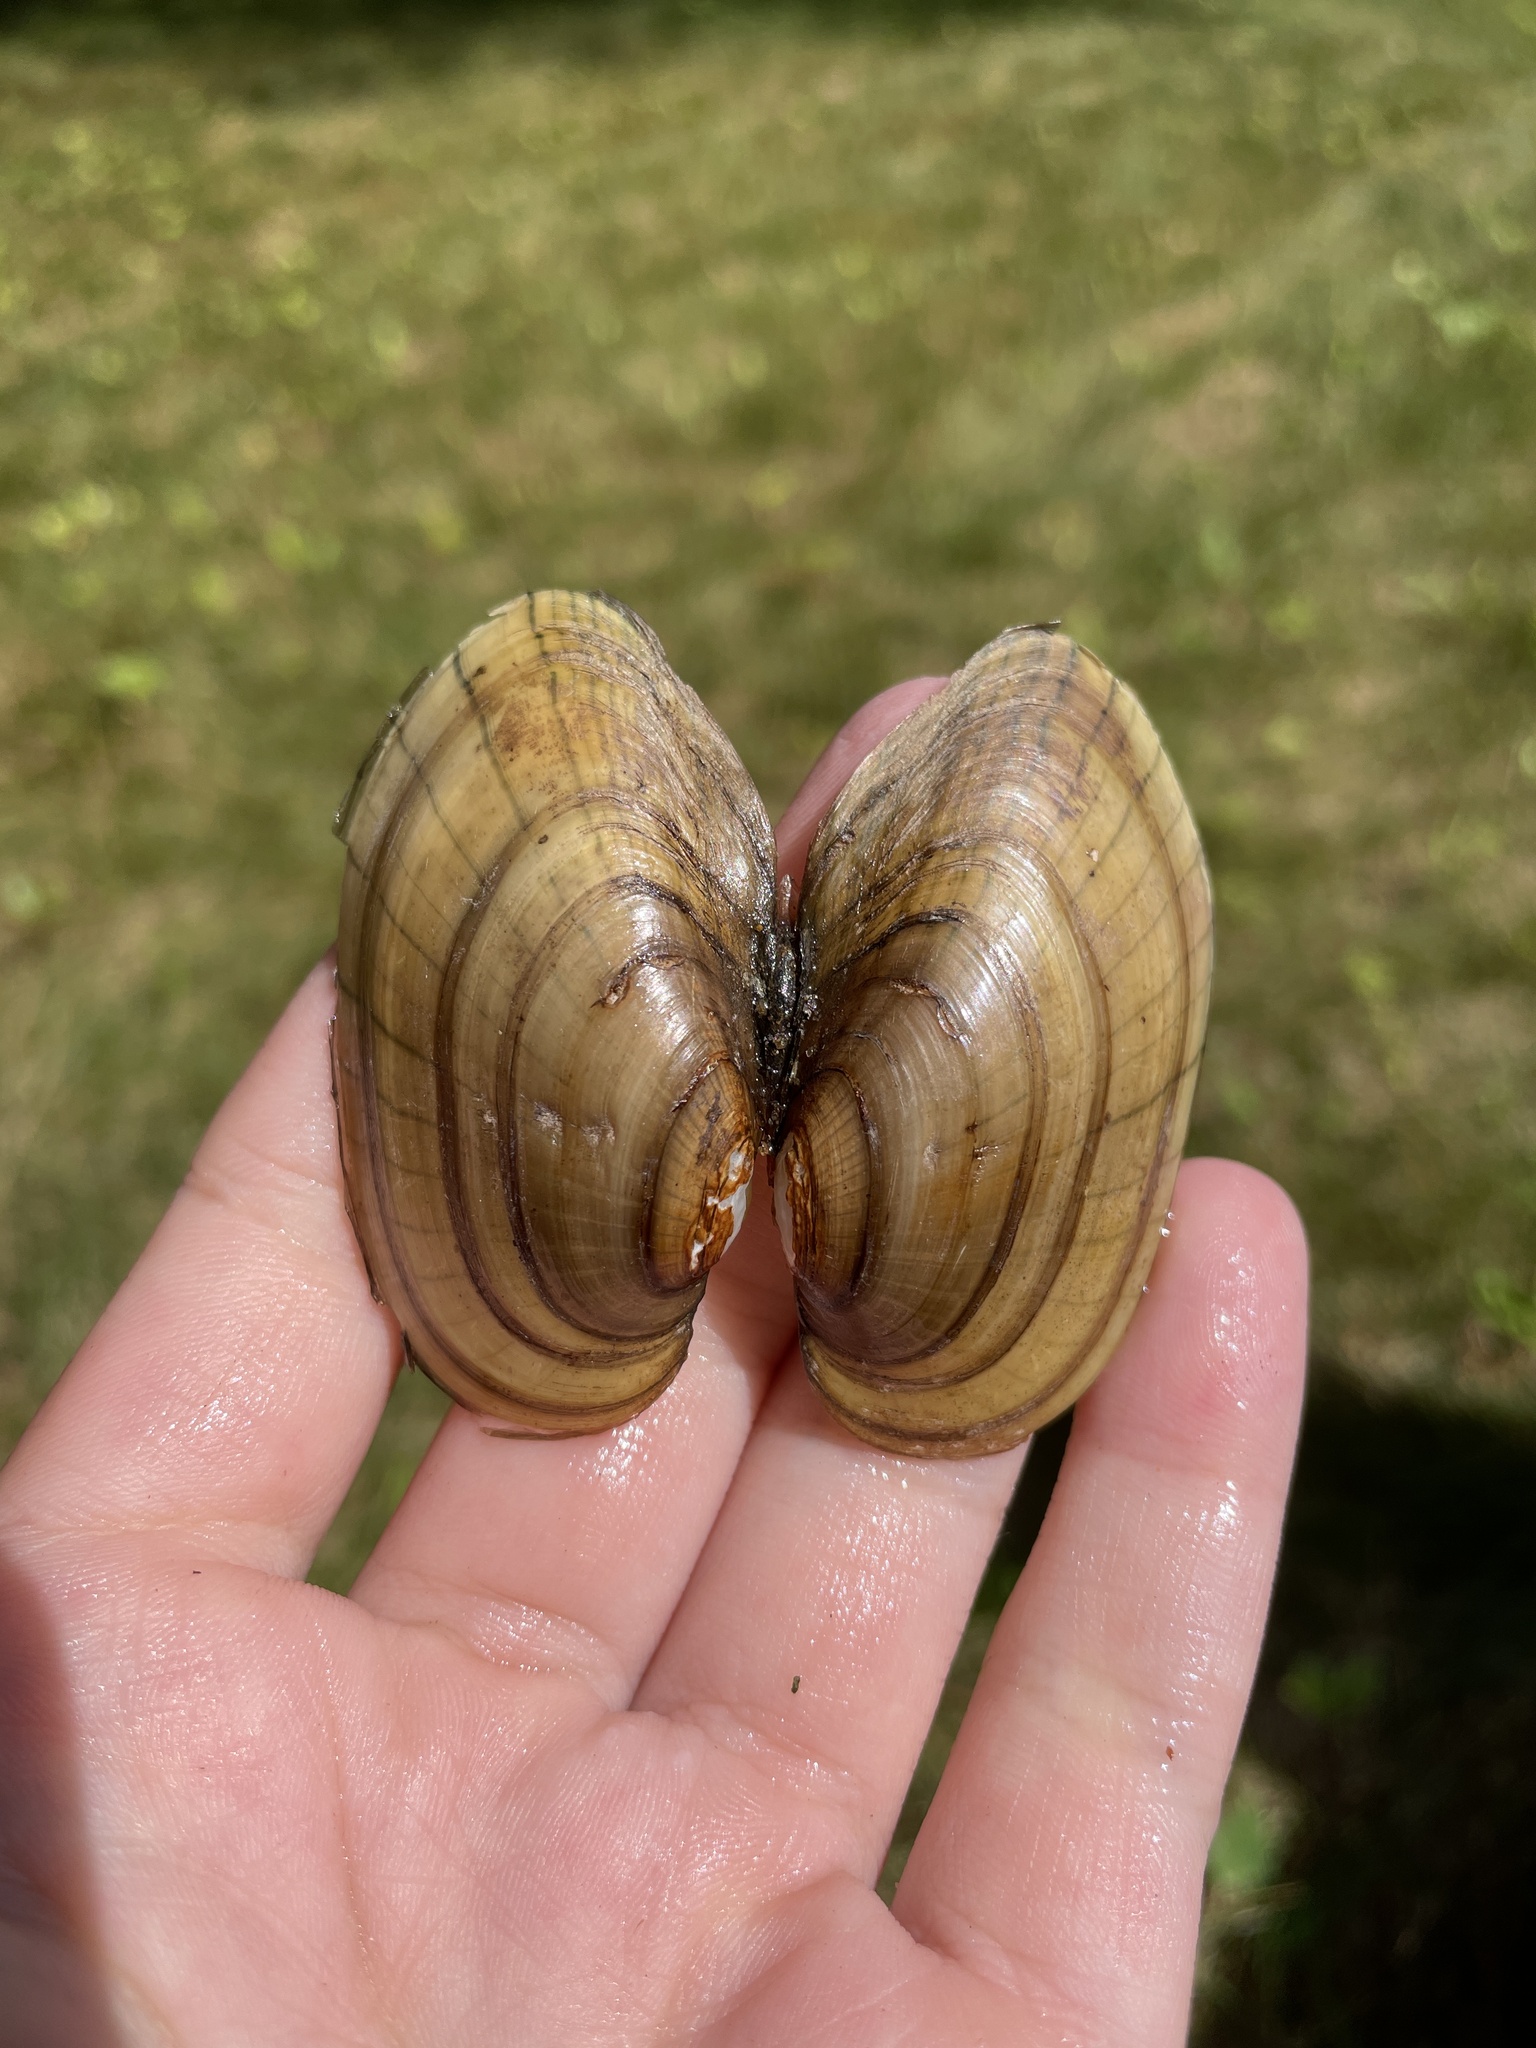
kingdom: Animalia
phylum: Mollusca
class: Bivalvia
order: Unionida
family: Unionidae
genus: Lampsilis
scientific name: Lampsilis siliquoidea
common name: Fatmucket
